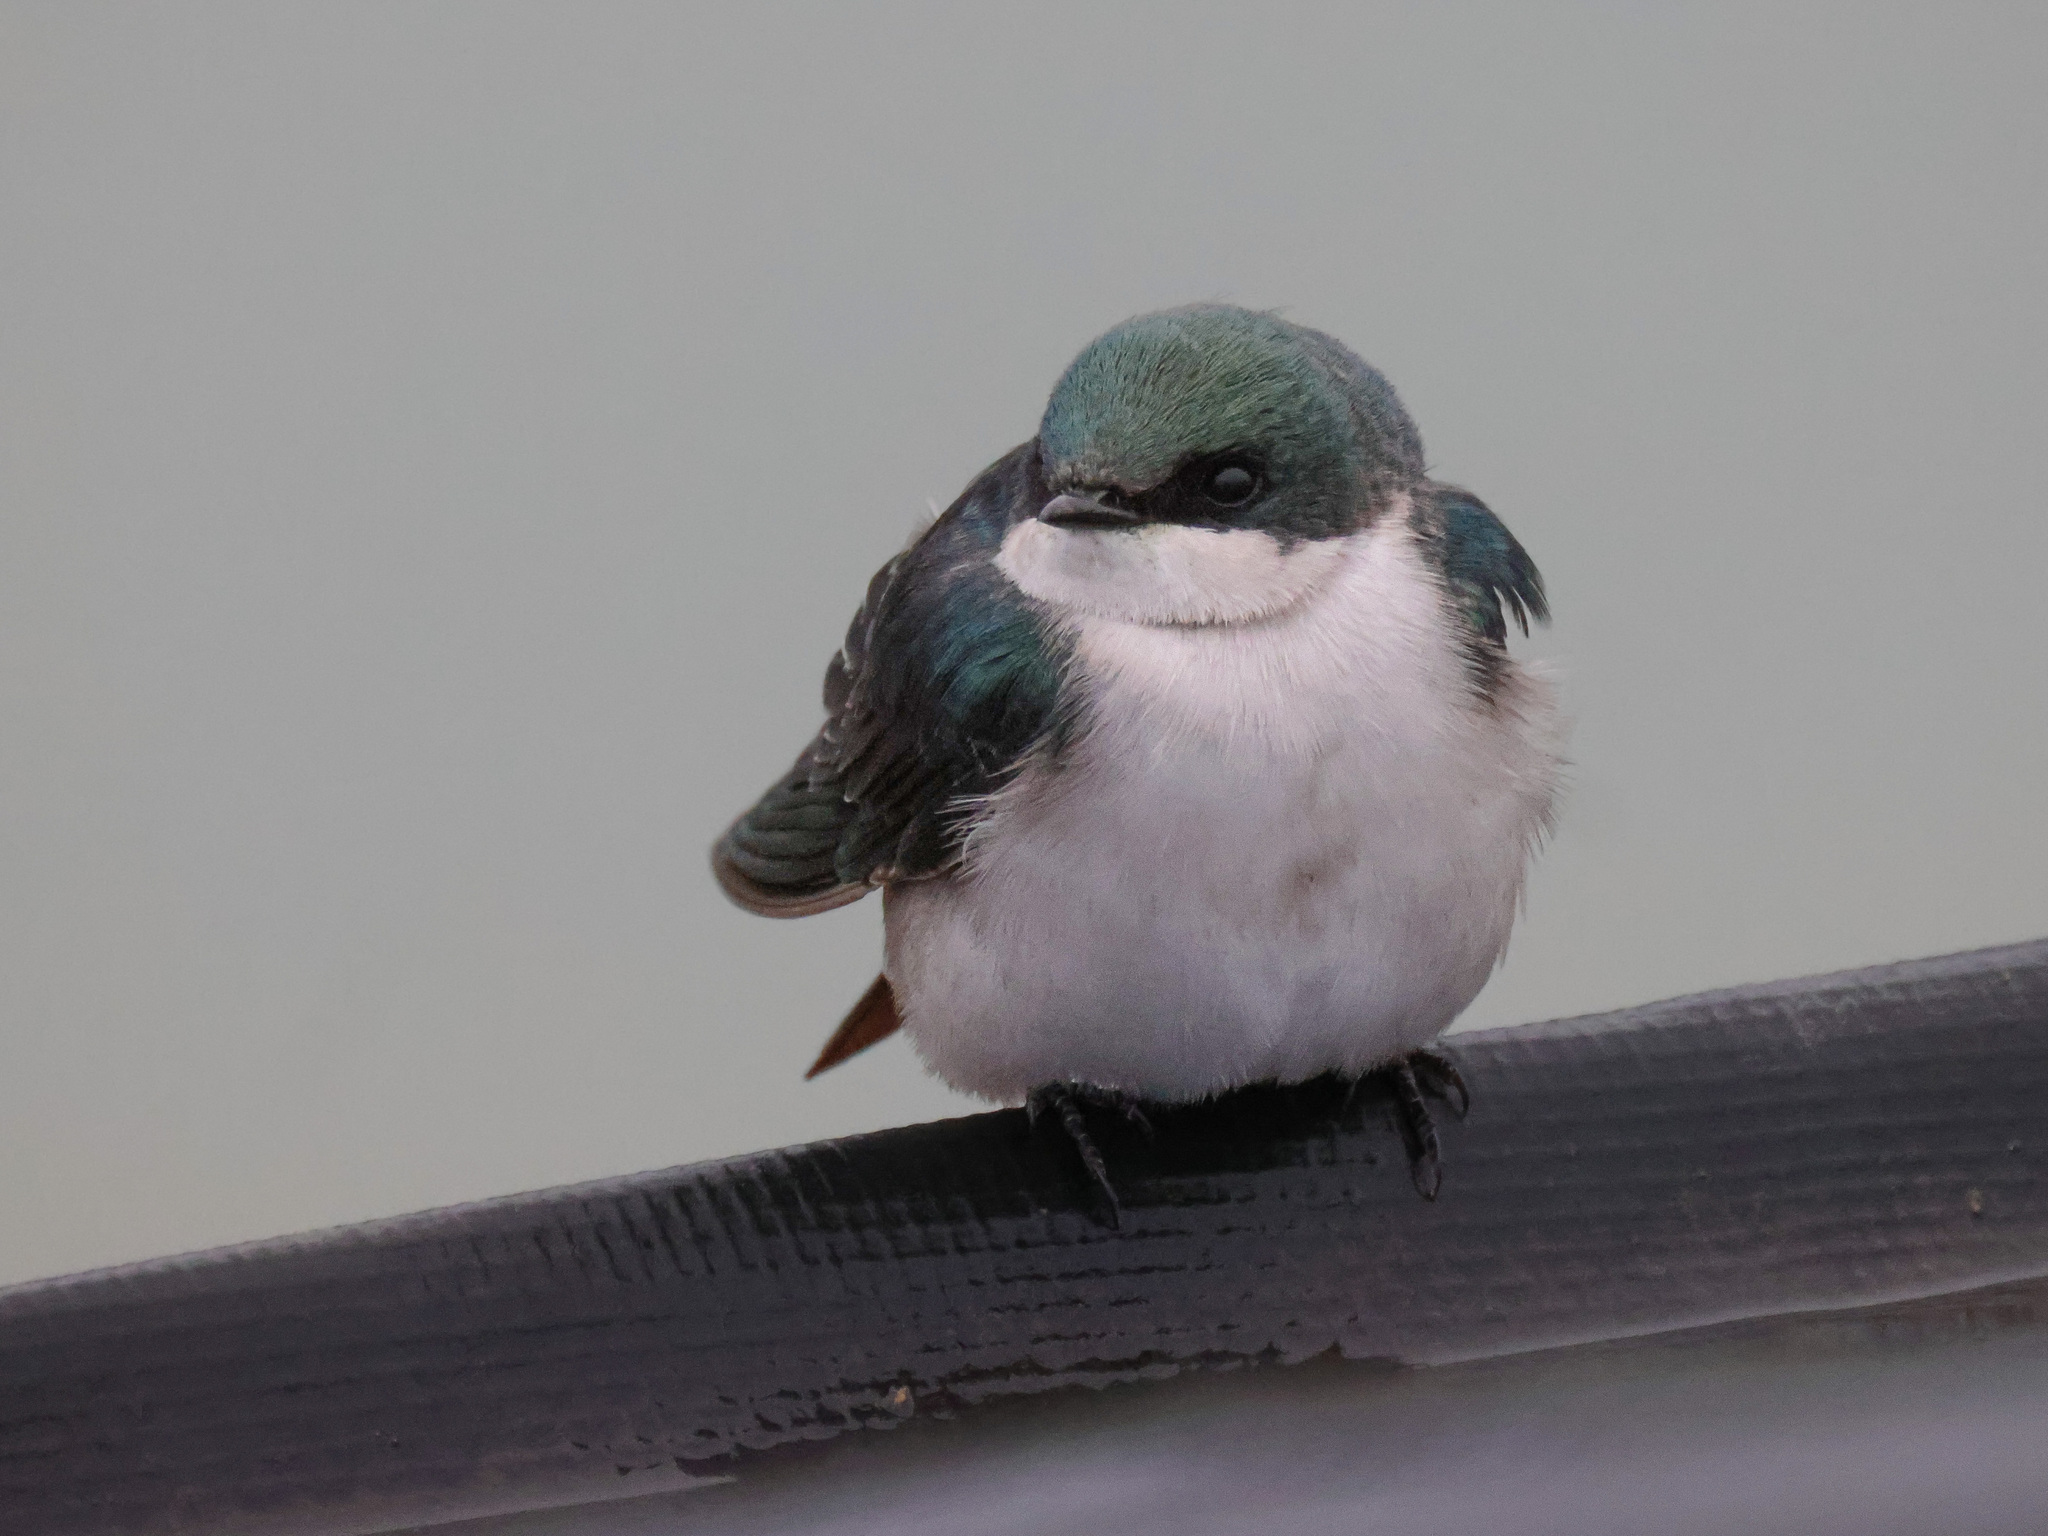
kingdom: Animalia
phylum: Chordata
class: Aves
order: Passeriformes
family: Hirundinidae
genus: Tachycineta
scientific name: Tachycineta bicolor
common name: Tree swallow
